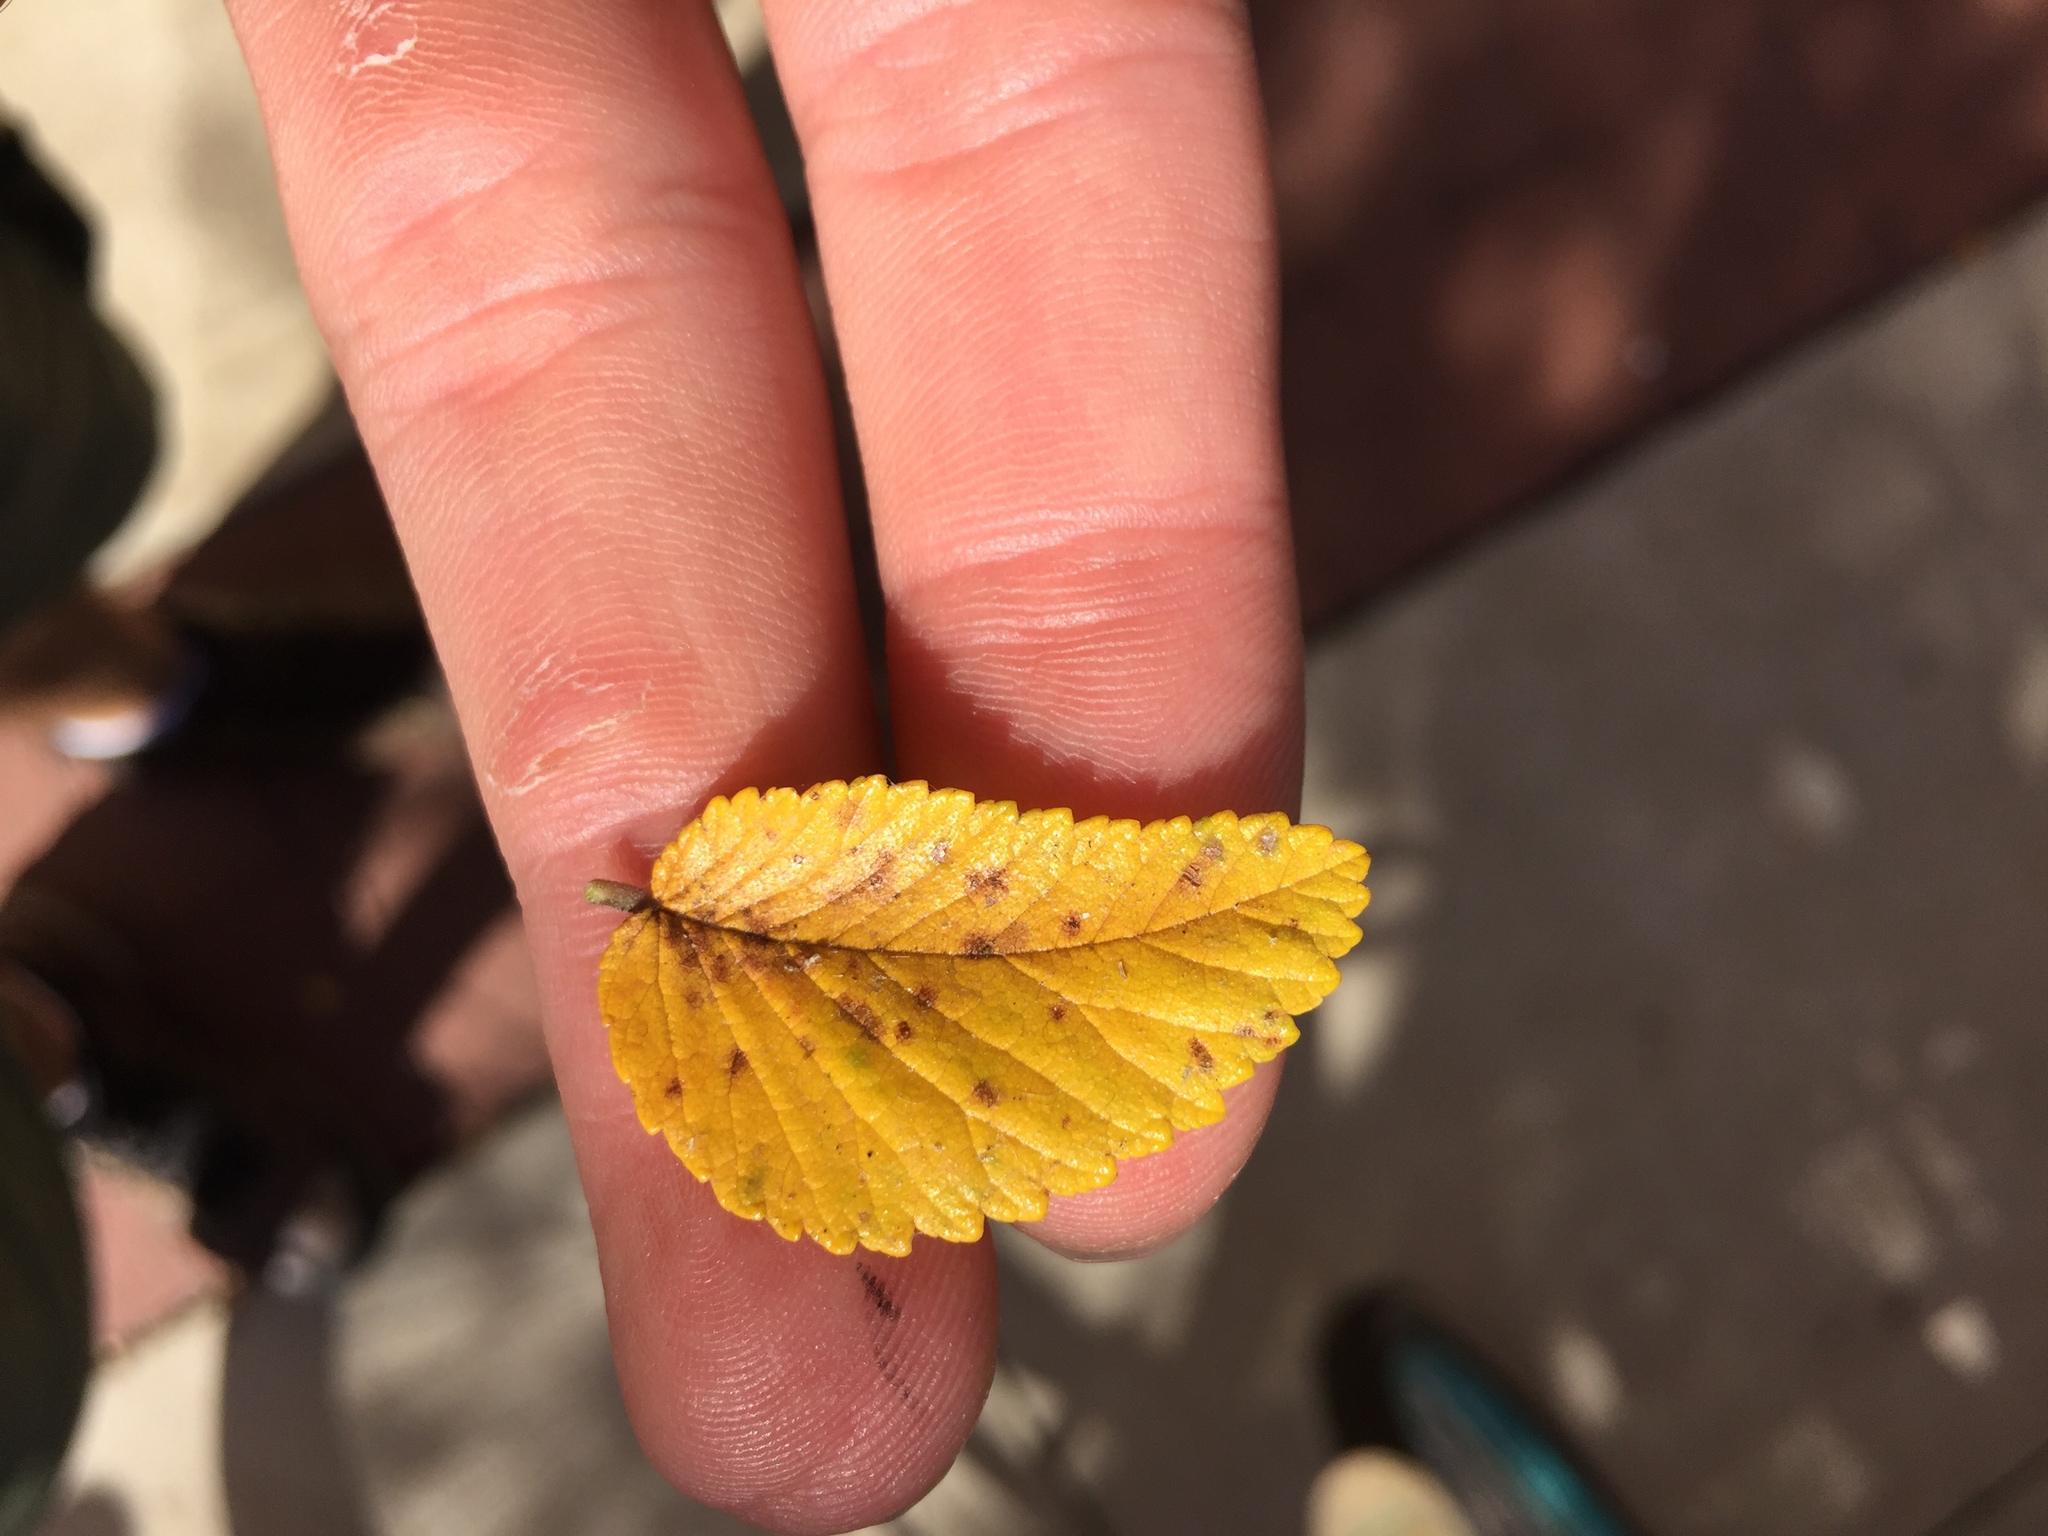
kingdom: Plantae
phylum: Tracheophyta
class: Magnoliopsida
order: Rosales
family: Ulmaceae
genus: Ulmus
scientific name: Ulmus crassifolia
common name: Basket elm
